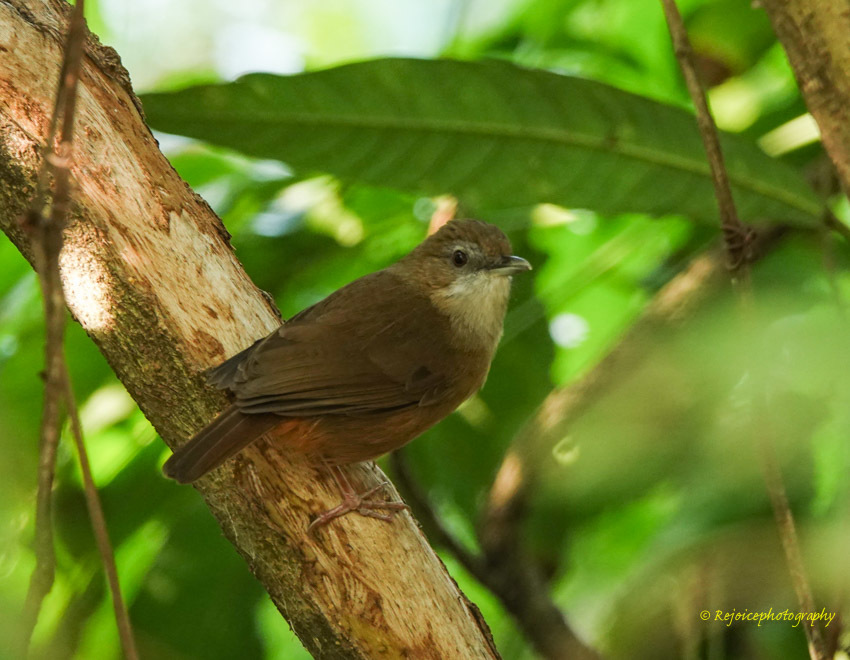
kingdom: Animalia
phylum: Chordata
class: Aves
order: Passeriformes
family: Pellorneidae
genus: Malacocincla
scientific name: Malacocincla abbotti
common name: Abbott's babbler
